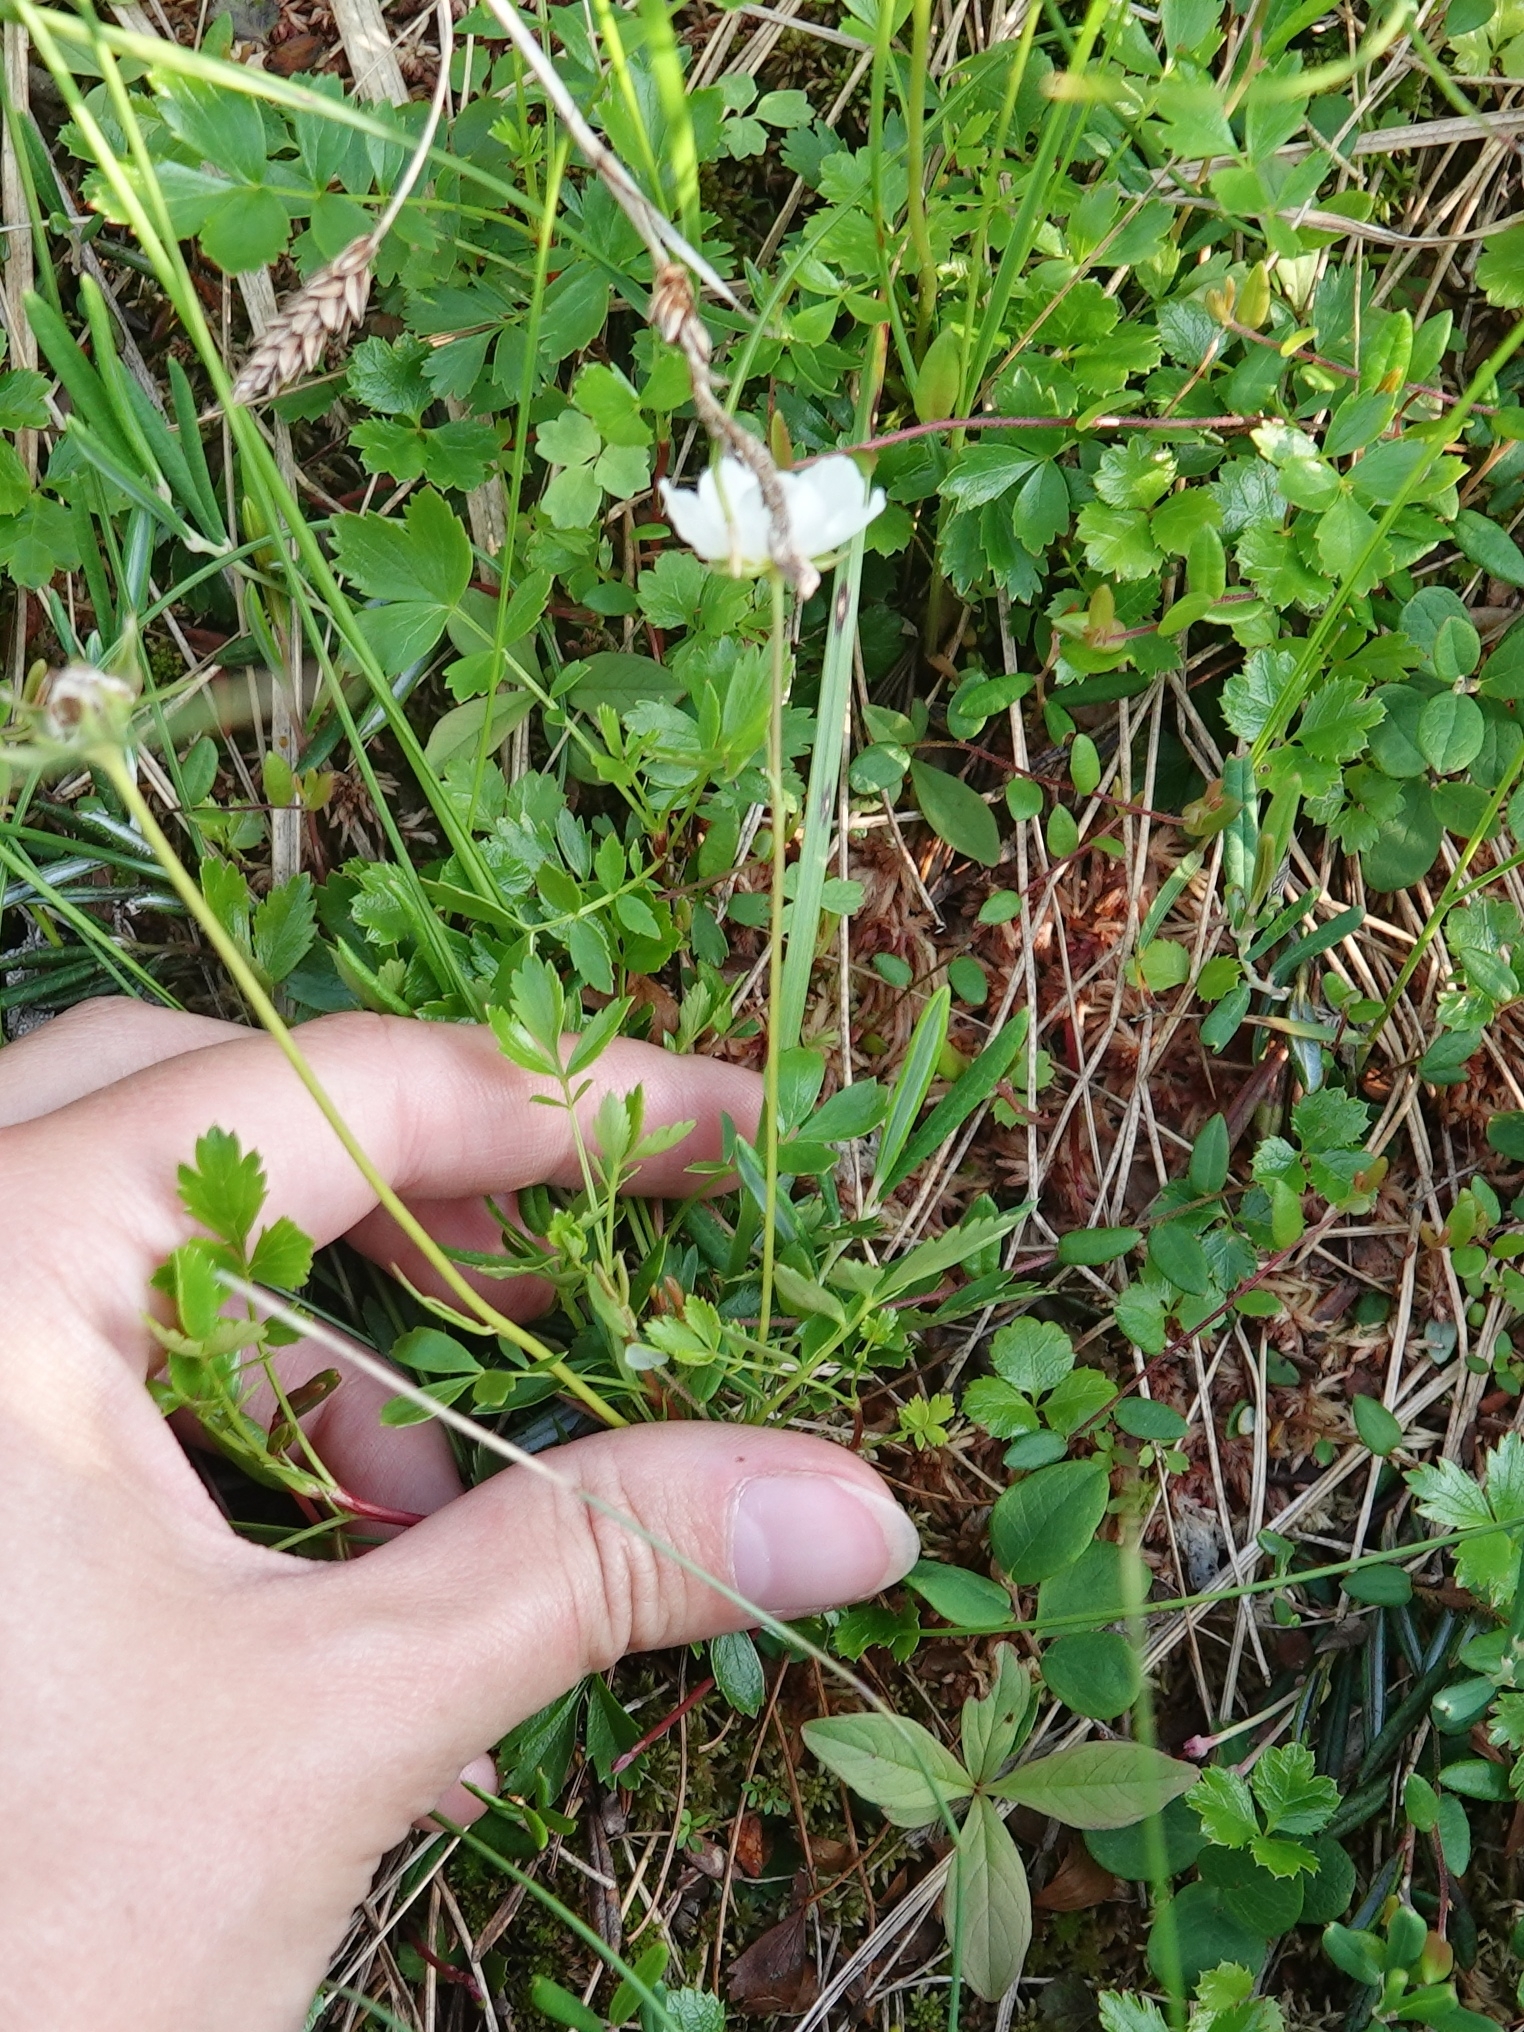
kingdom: Plantae
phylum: Tracheophyta
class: Magnoliopsida
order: Rosales
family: Rosaceae
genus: Geum
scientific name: Geum pentapetalum
